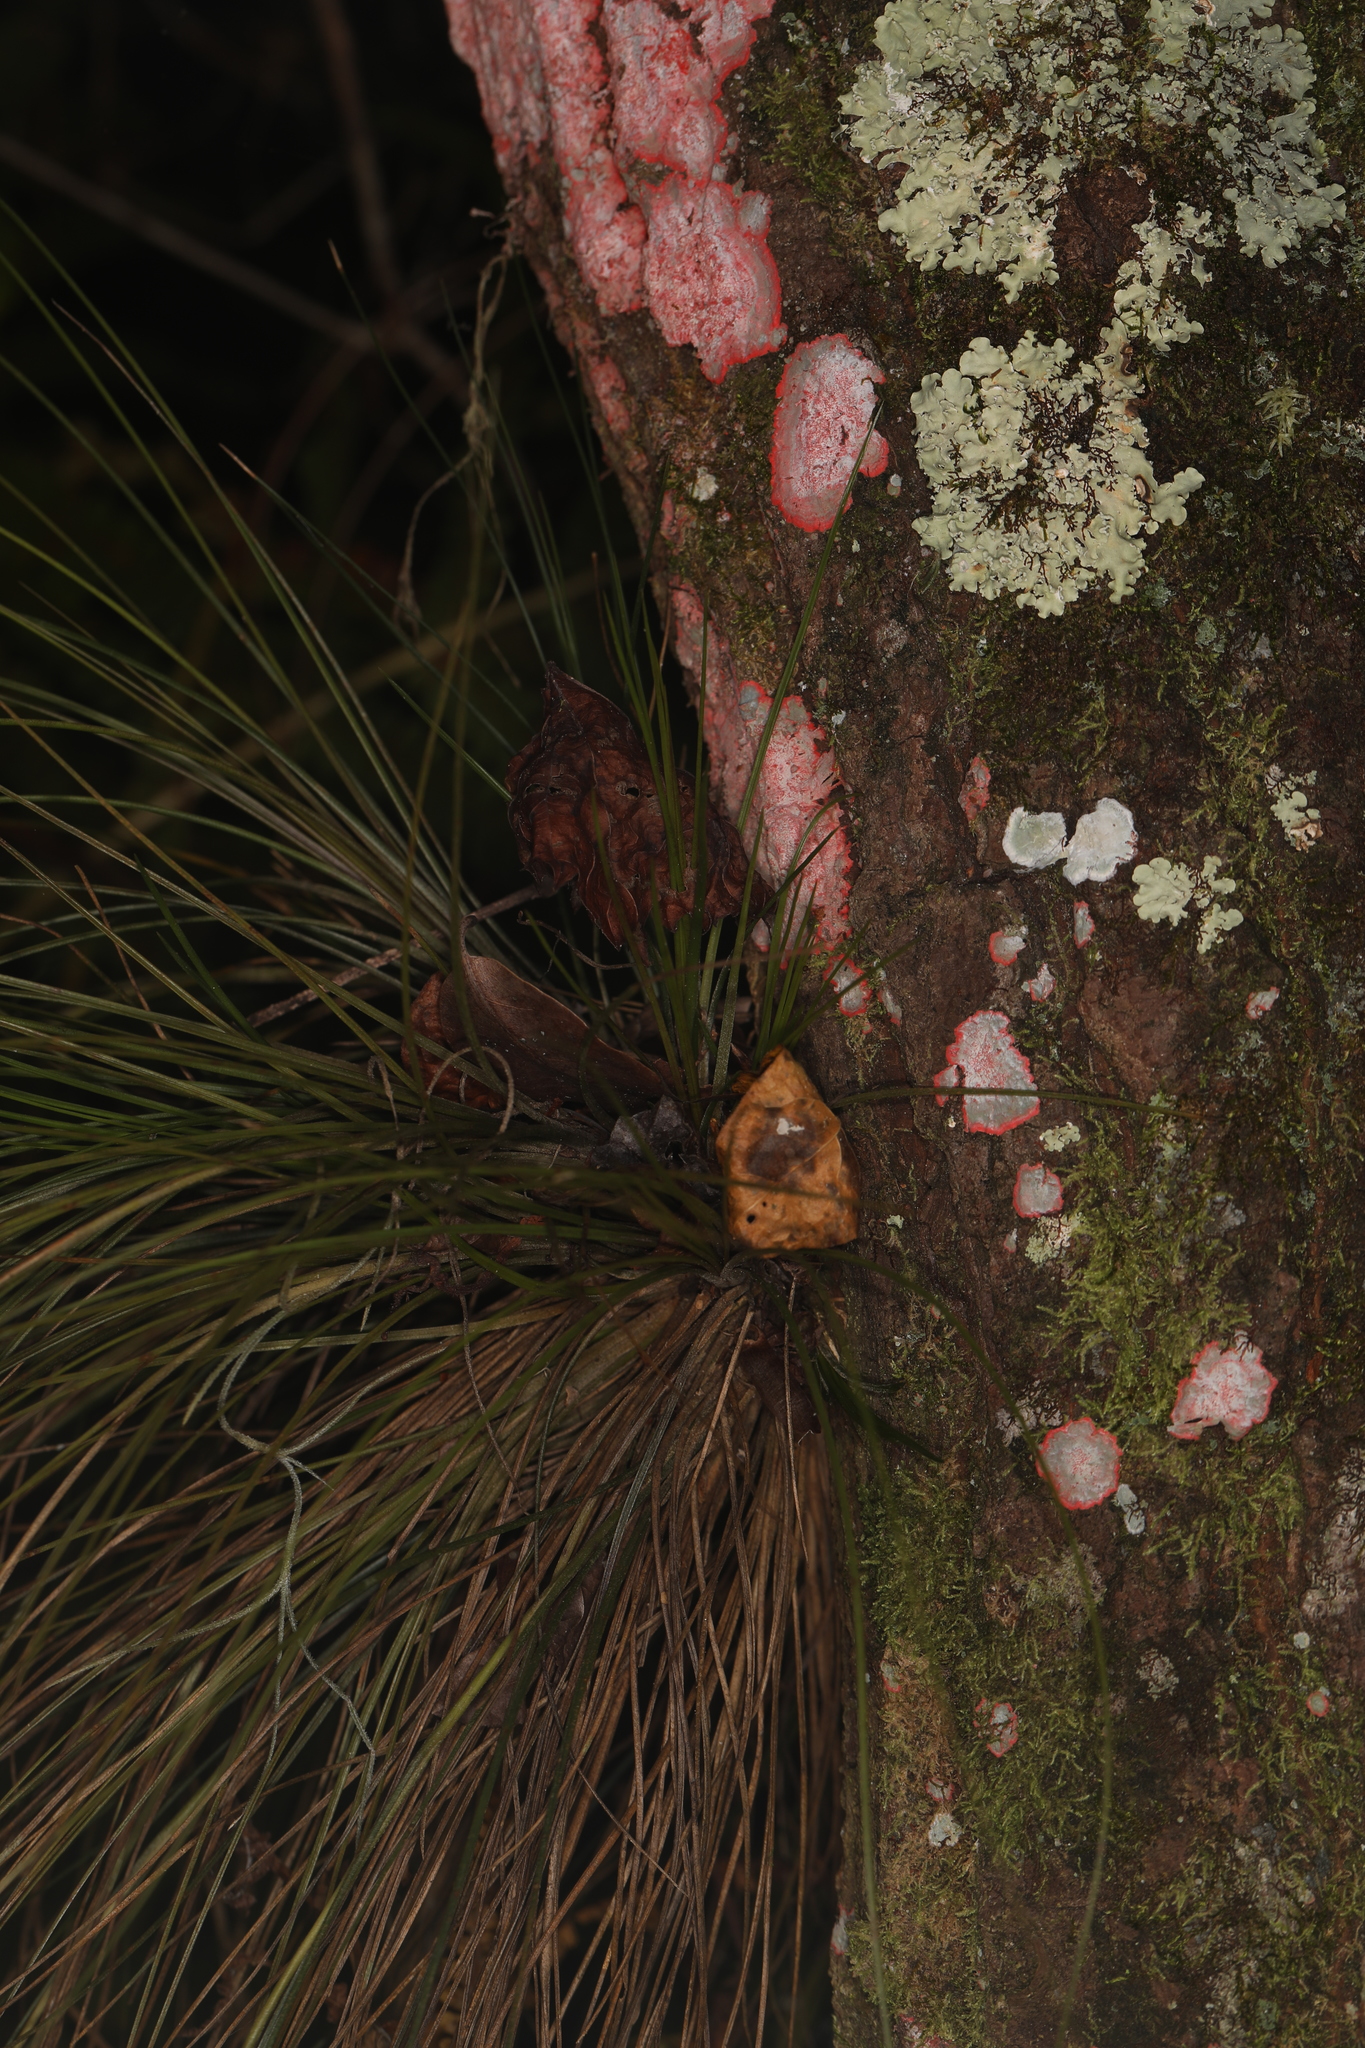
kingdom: Plantae
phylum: Tracheophyta
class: Liliopsida
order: Poales
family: Bromeliaceae
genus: Tillandsia
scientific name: Tillandsia setacea
